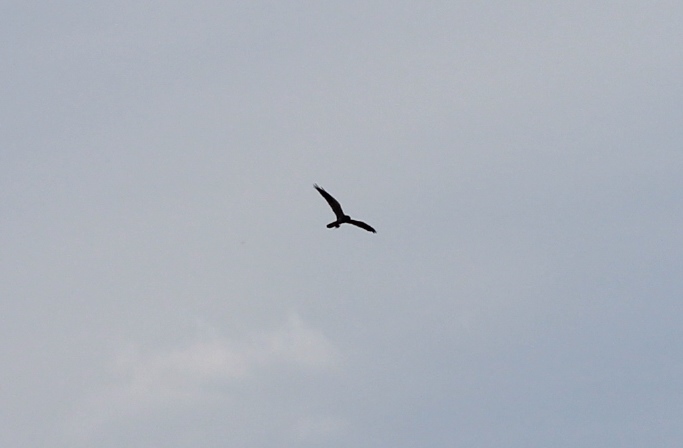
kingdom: Animalia
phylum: Chordata
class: Aves
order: Accipitriformes
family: Accipitridae
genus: Circus
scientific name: Circus pygargus
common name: Montagu's harrier
